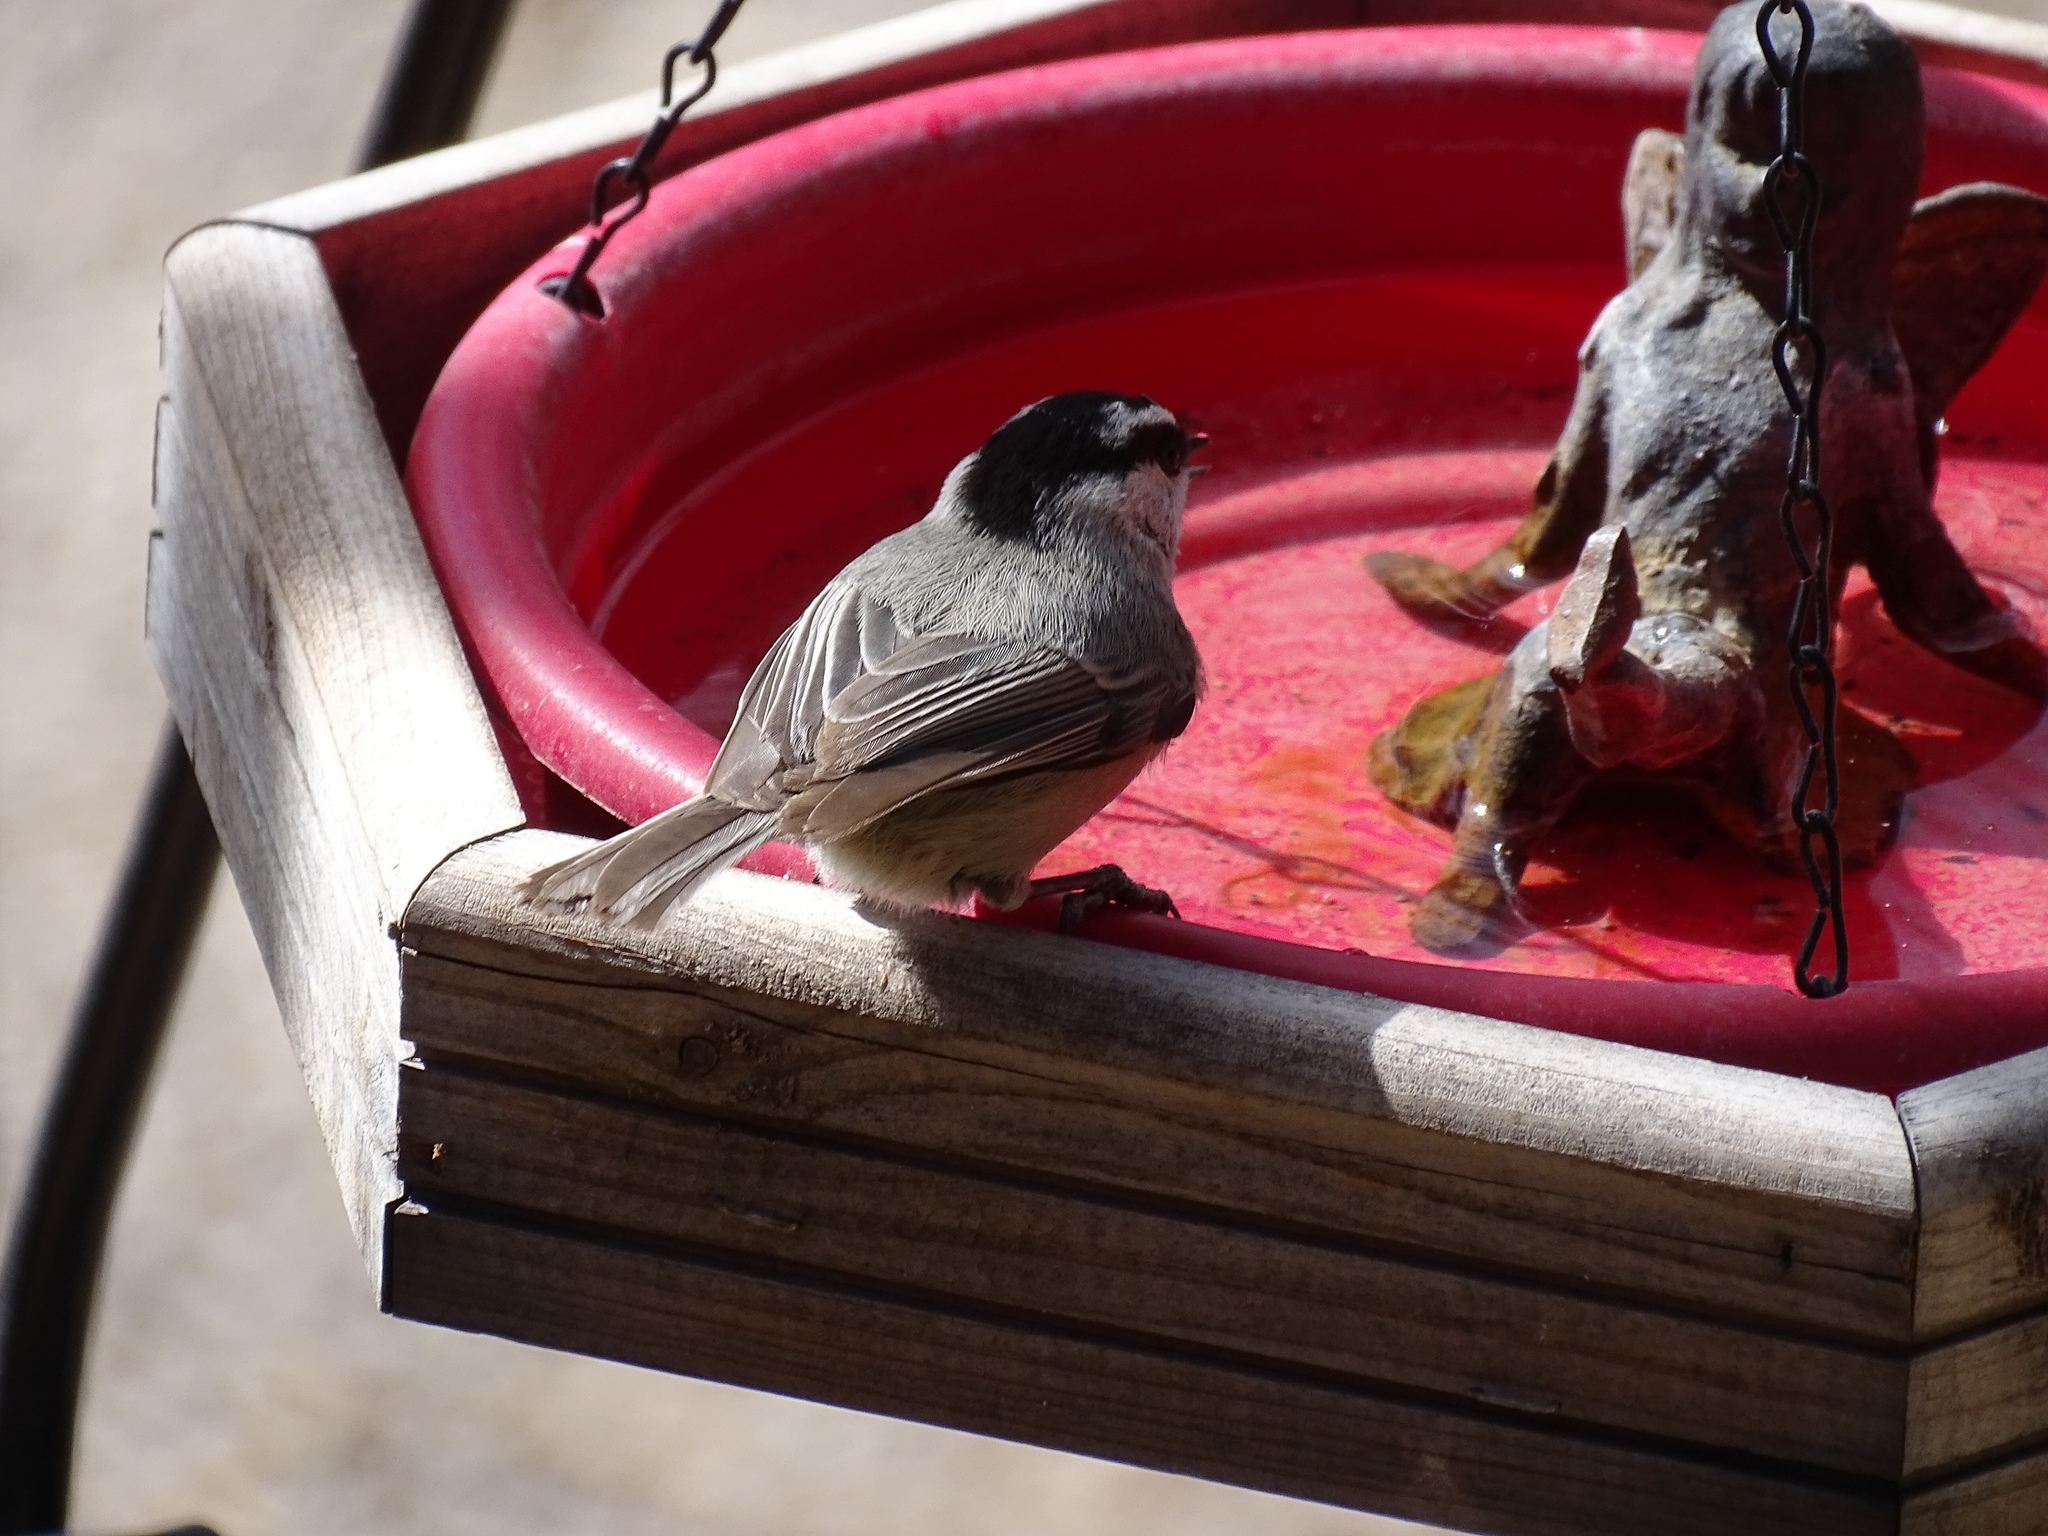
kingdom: Animalia
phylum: Chordata
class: Aves
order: Passeriformes
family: Paridae
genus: Poecile
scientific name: Poecile gambeli
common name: Mountain chickadee
